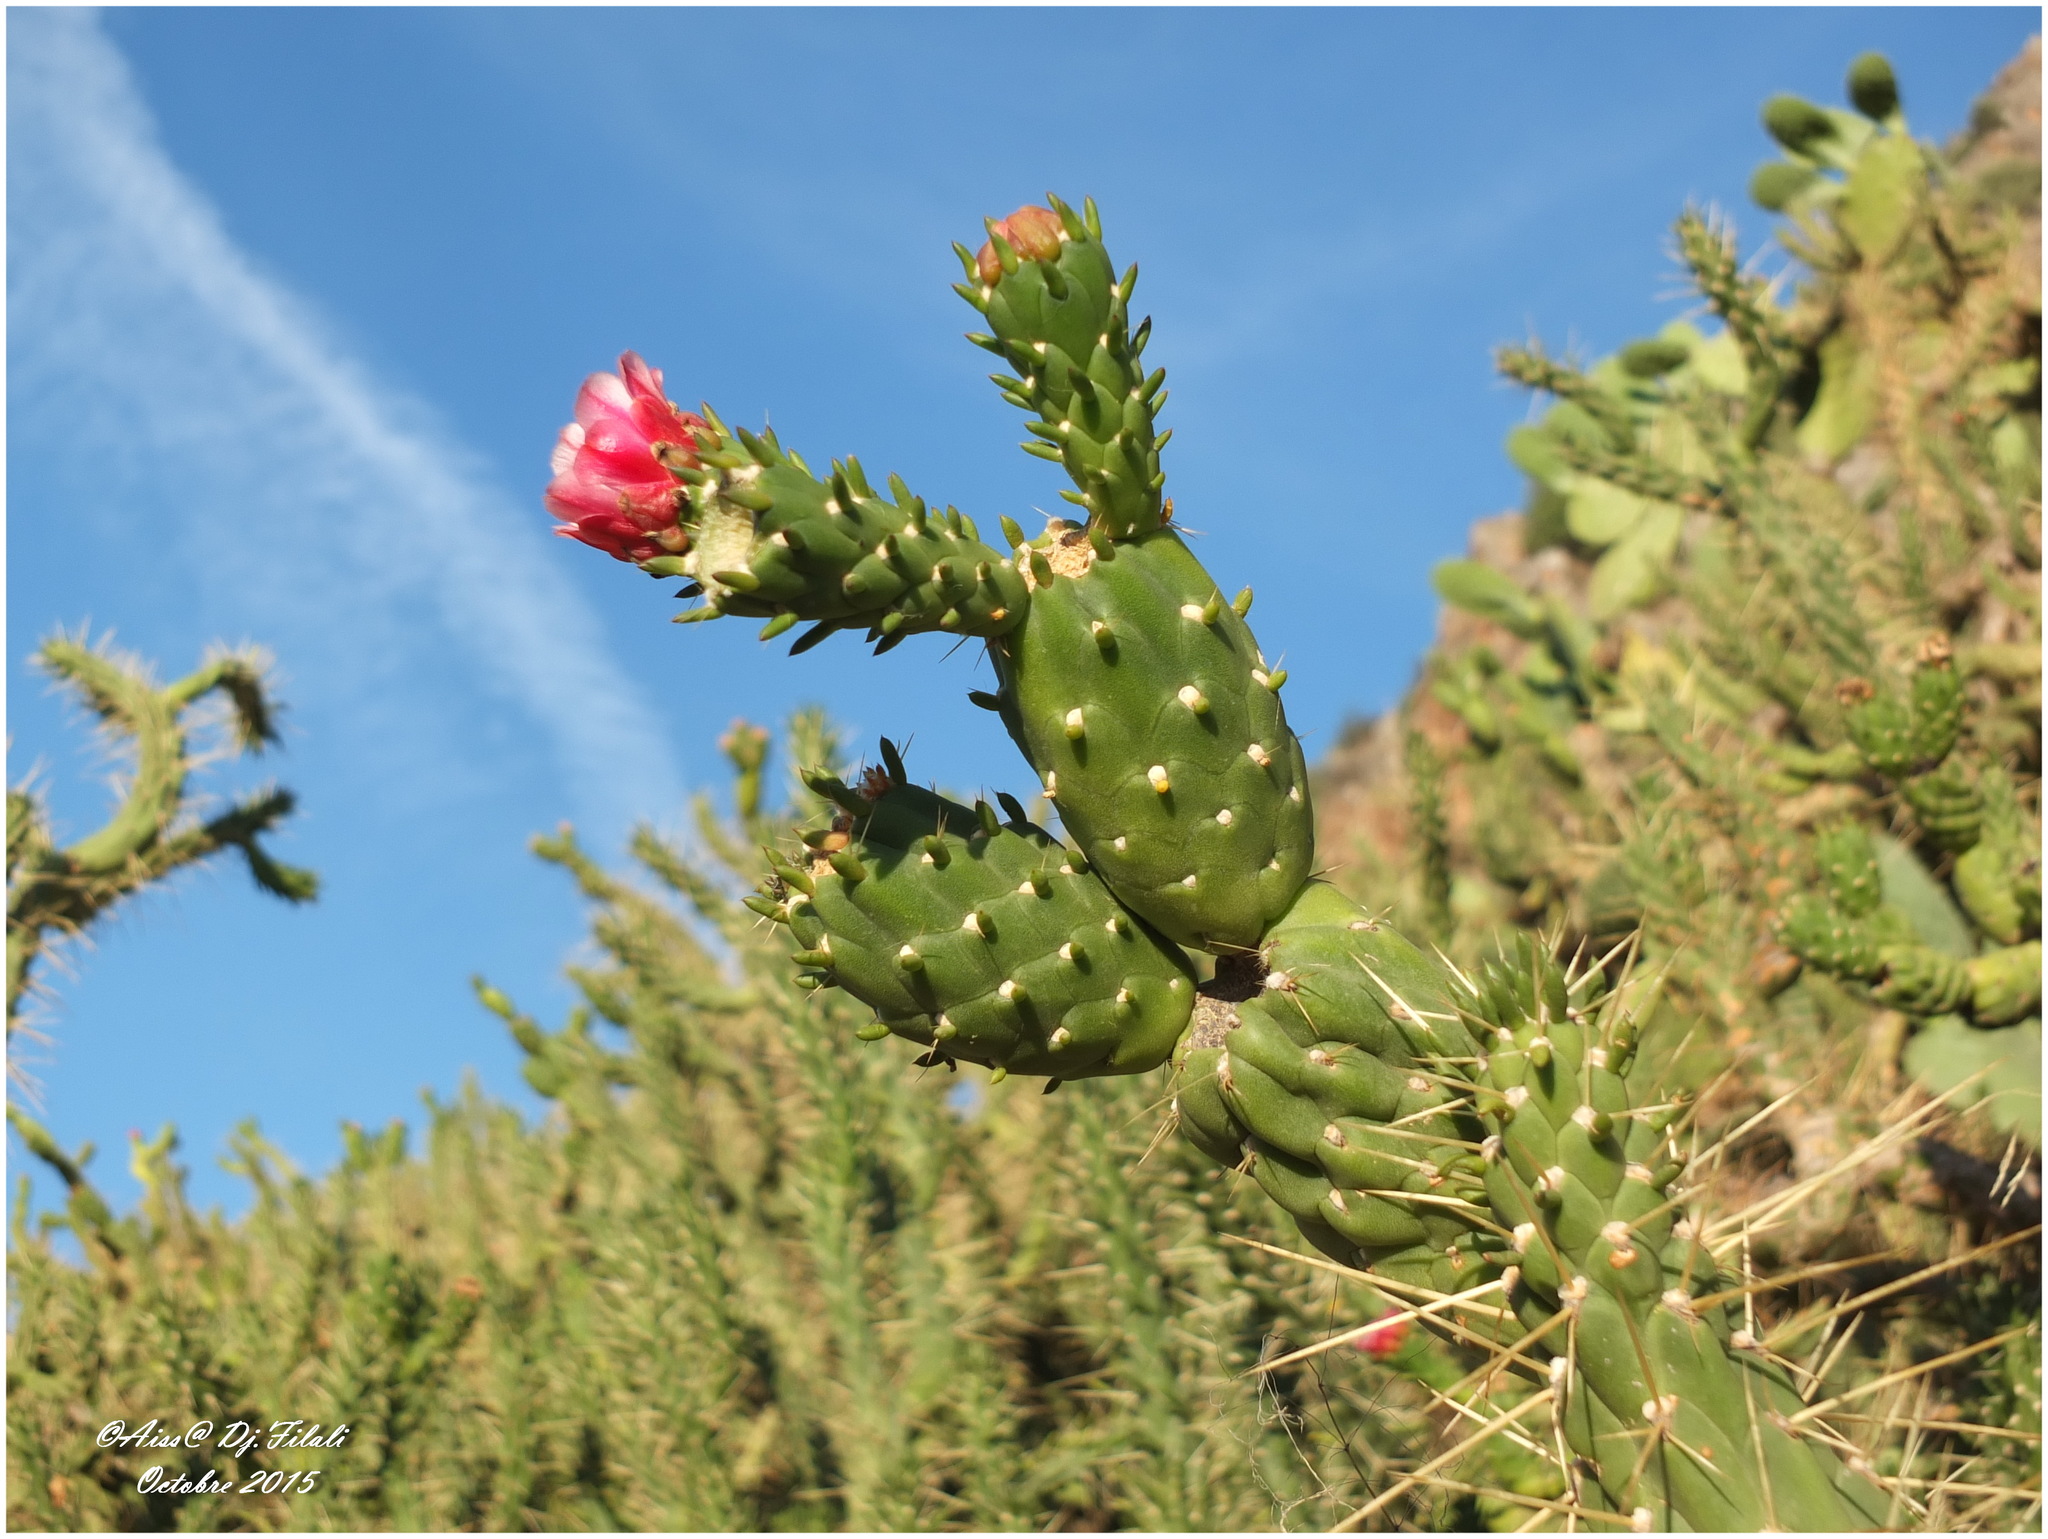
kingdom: Plantae
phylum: Tracheophyta
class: Magnoliopsida
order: Caryophyllales
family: Cactaceae
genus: Austrocylindropuntia
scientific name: Austrocylindropuntia subulata
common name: Eve's needle cactus
